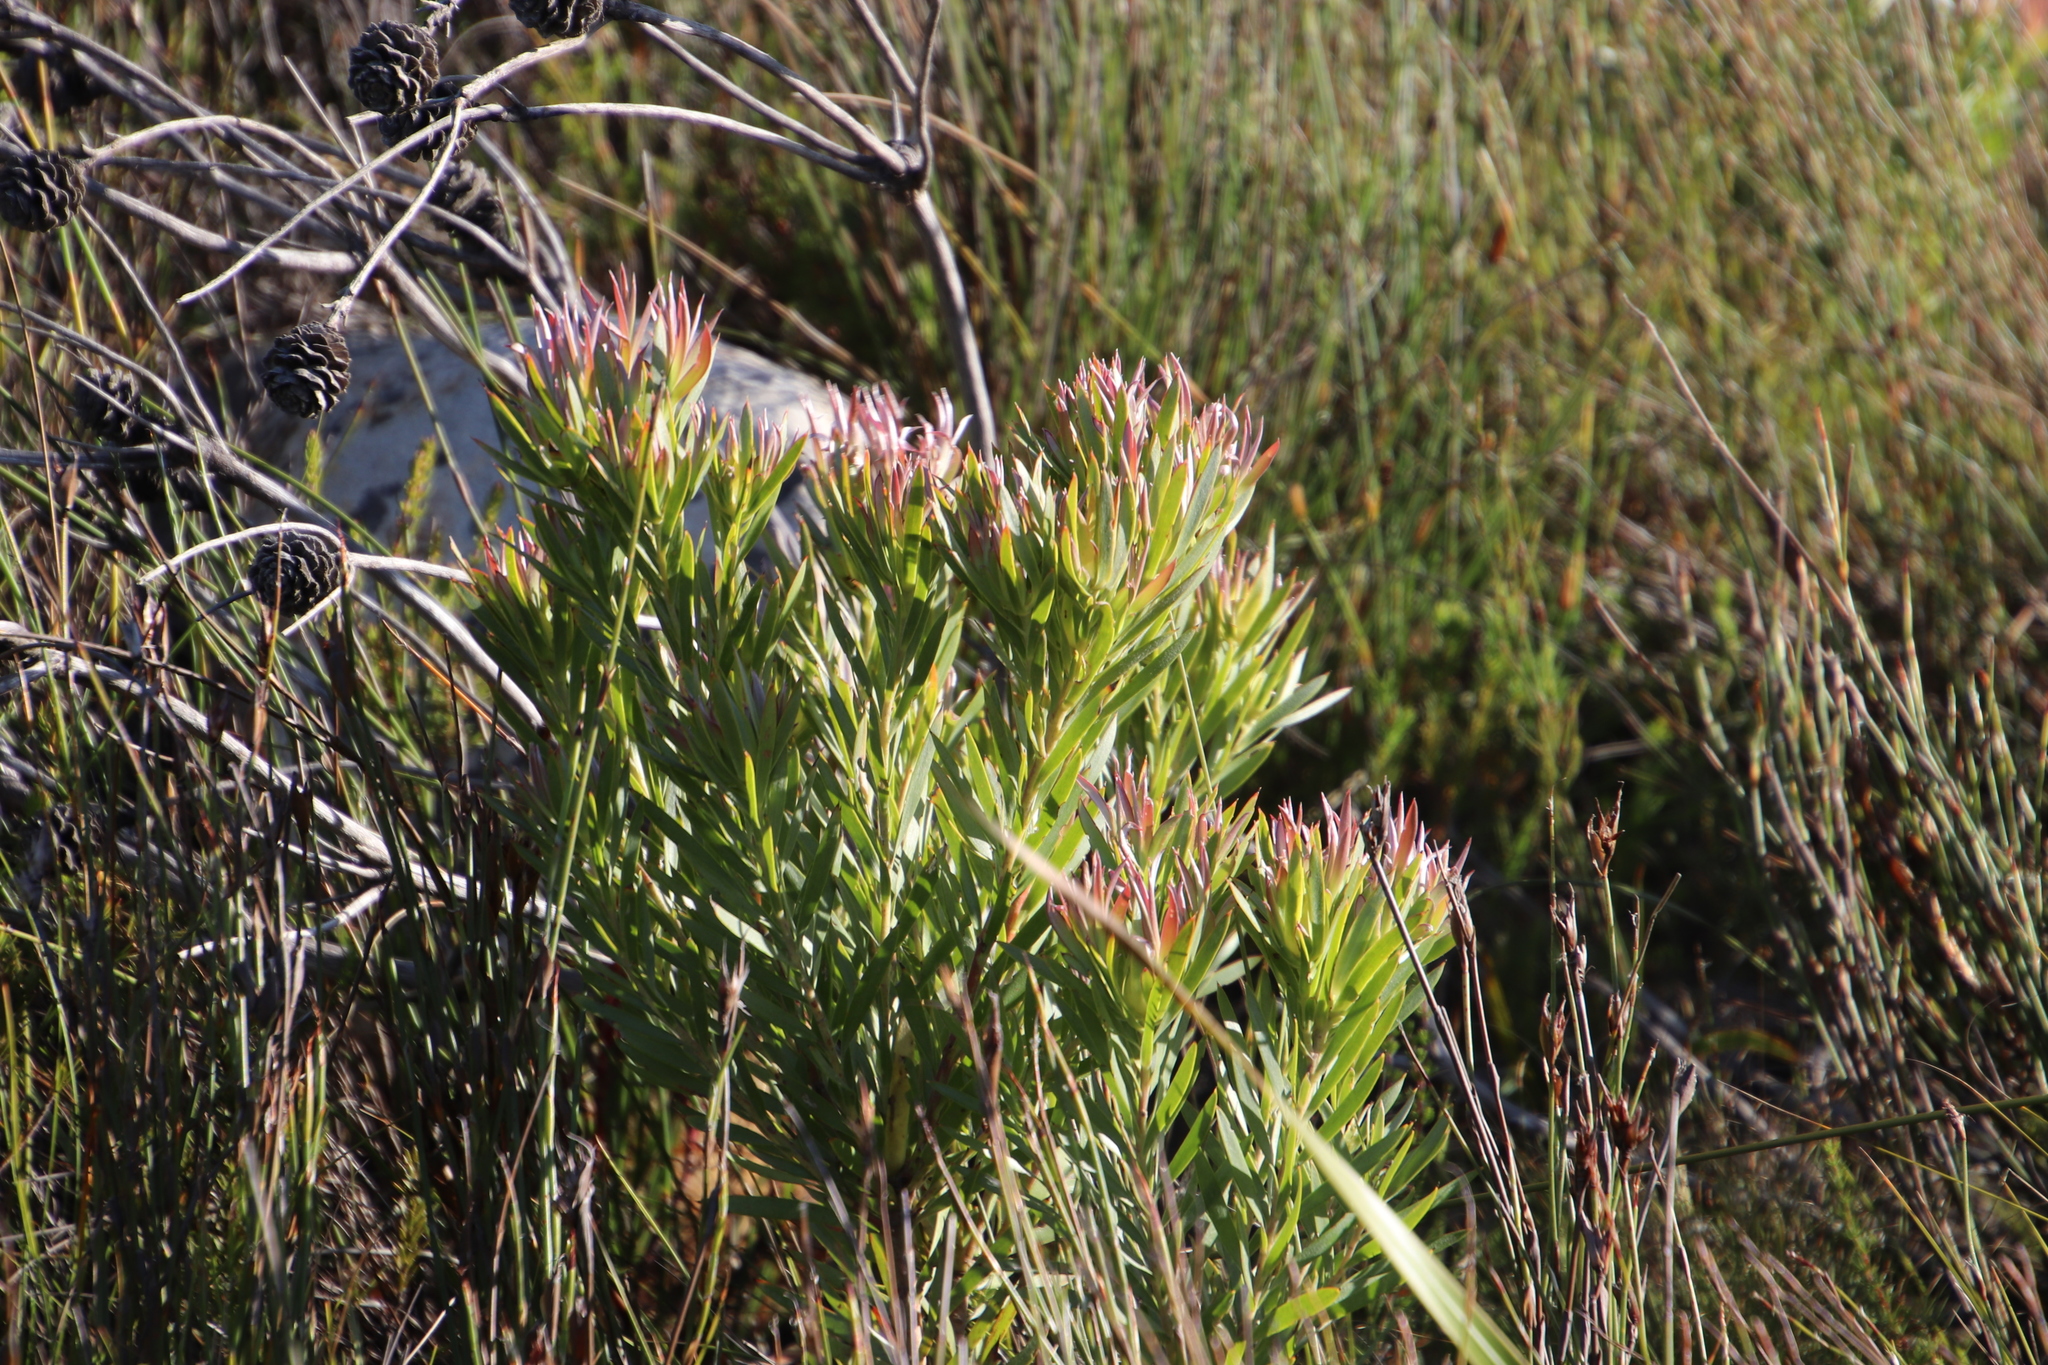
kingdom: Plantae
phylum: Tracheophyta
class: Magnoliopsida
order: Proteales
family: Proteaceae
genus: Leucadendron
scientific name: Leucadendron xanthoconus
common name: Sickle-leaf conebush
